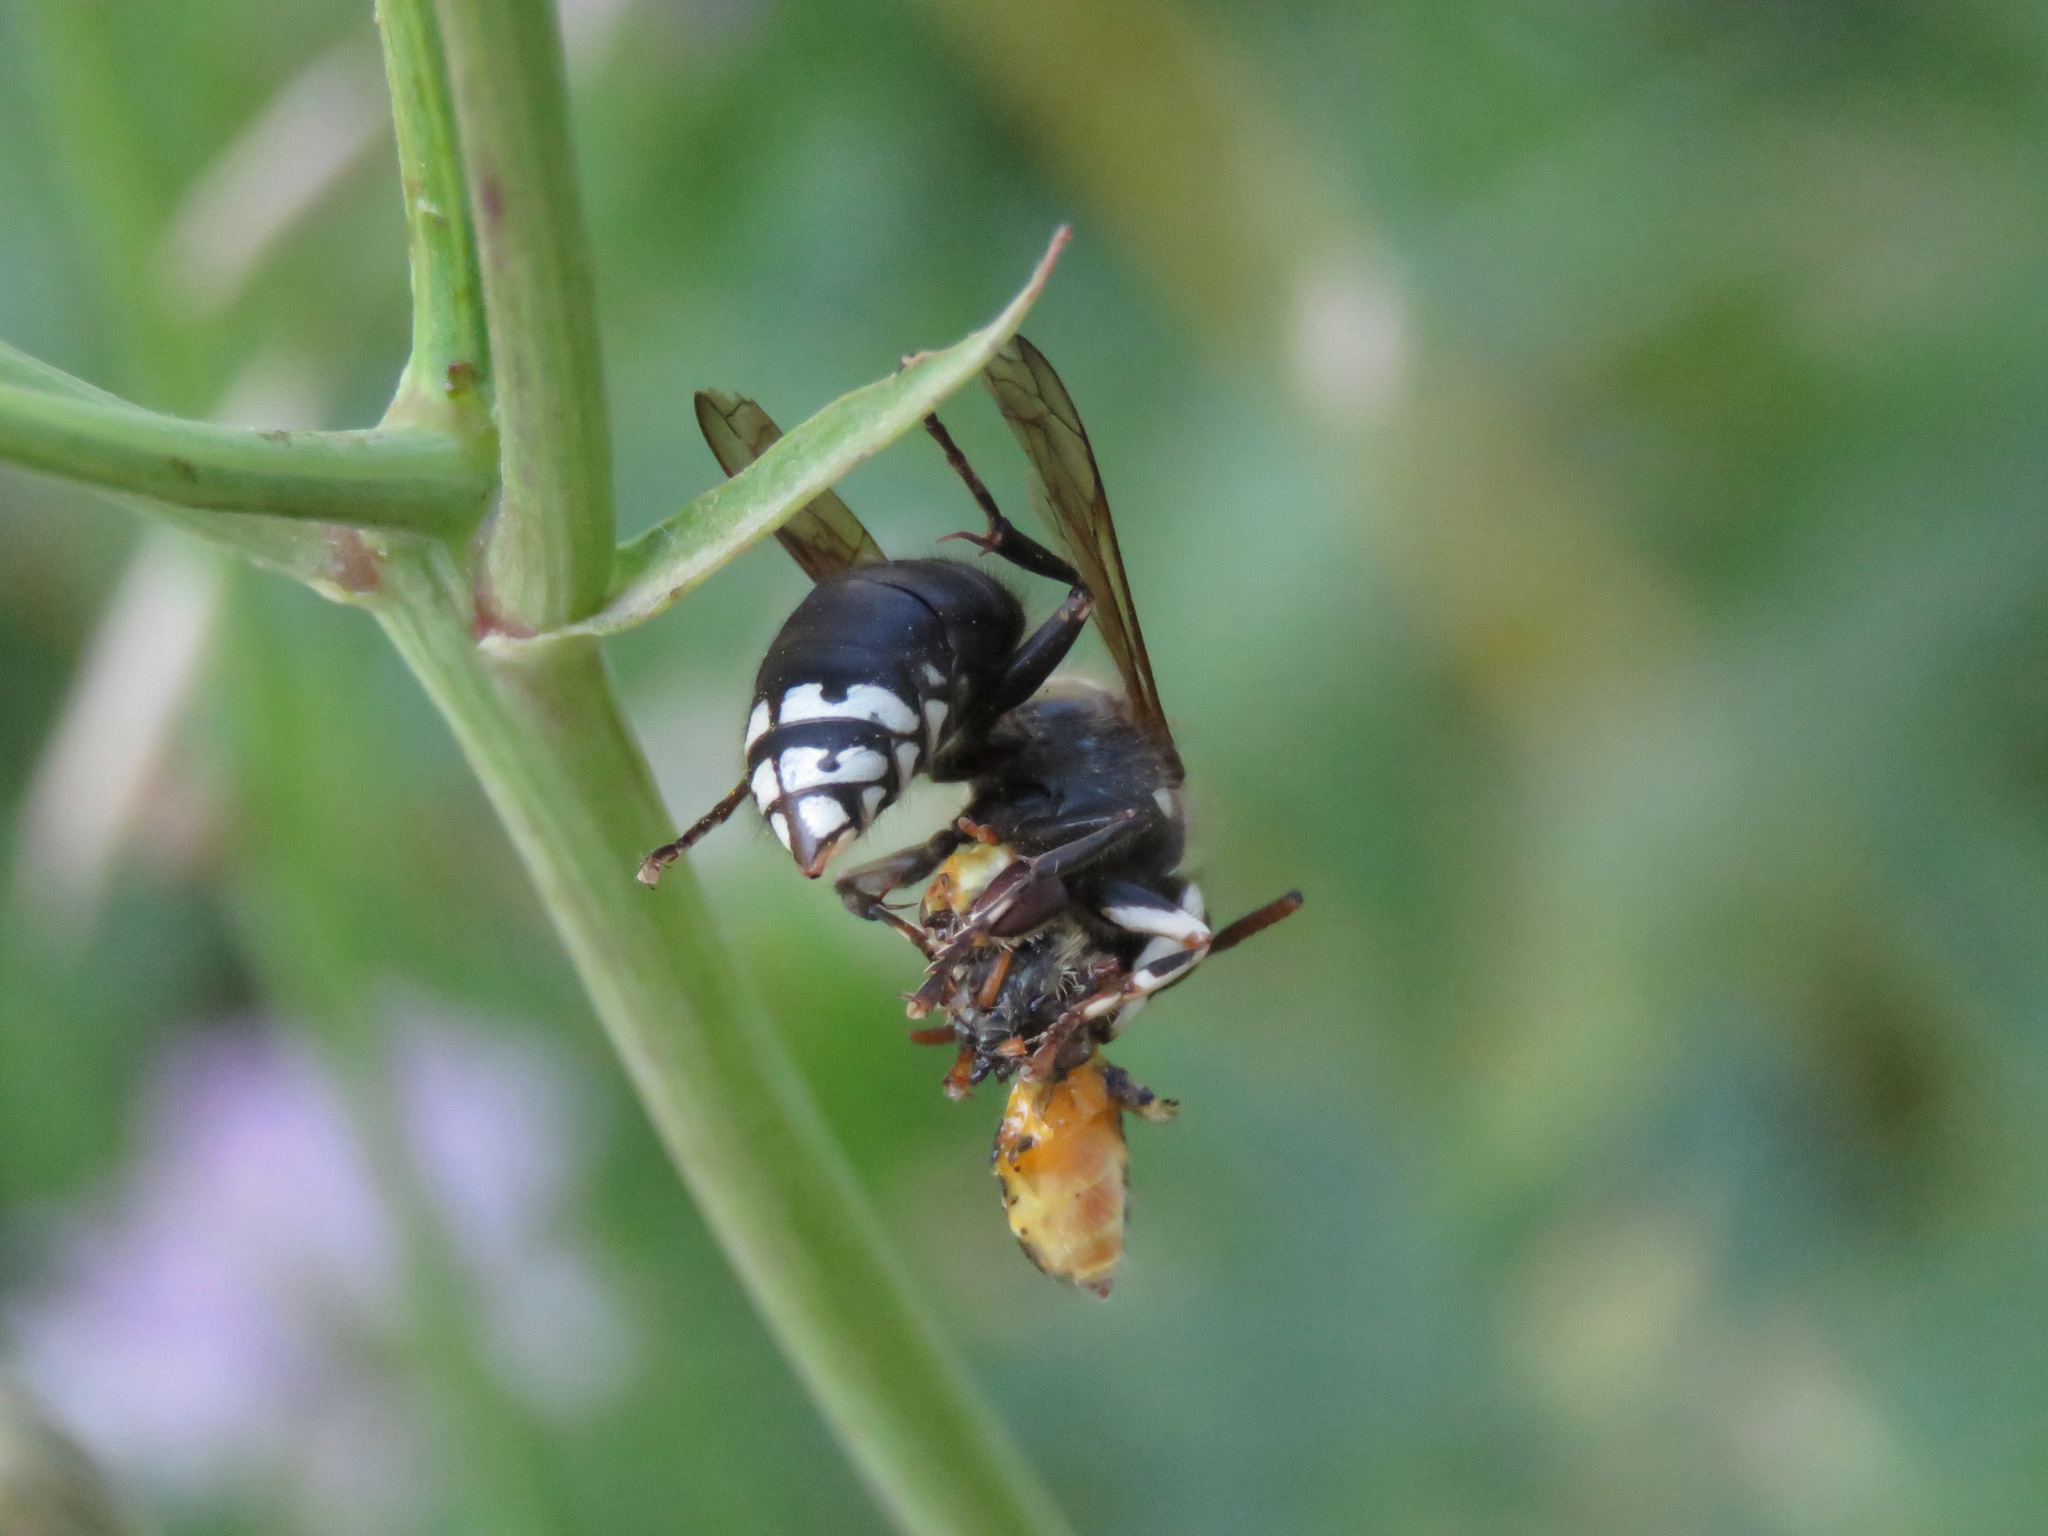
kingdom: Animalia
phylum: Arthropoda
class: Insecta
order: Hymenoptera
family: Vespidae
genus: Dolichovespula
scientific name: Dolichovespula maculata
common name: Bald-faced hornet
